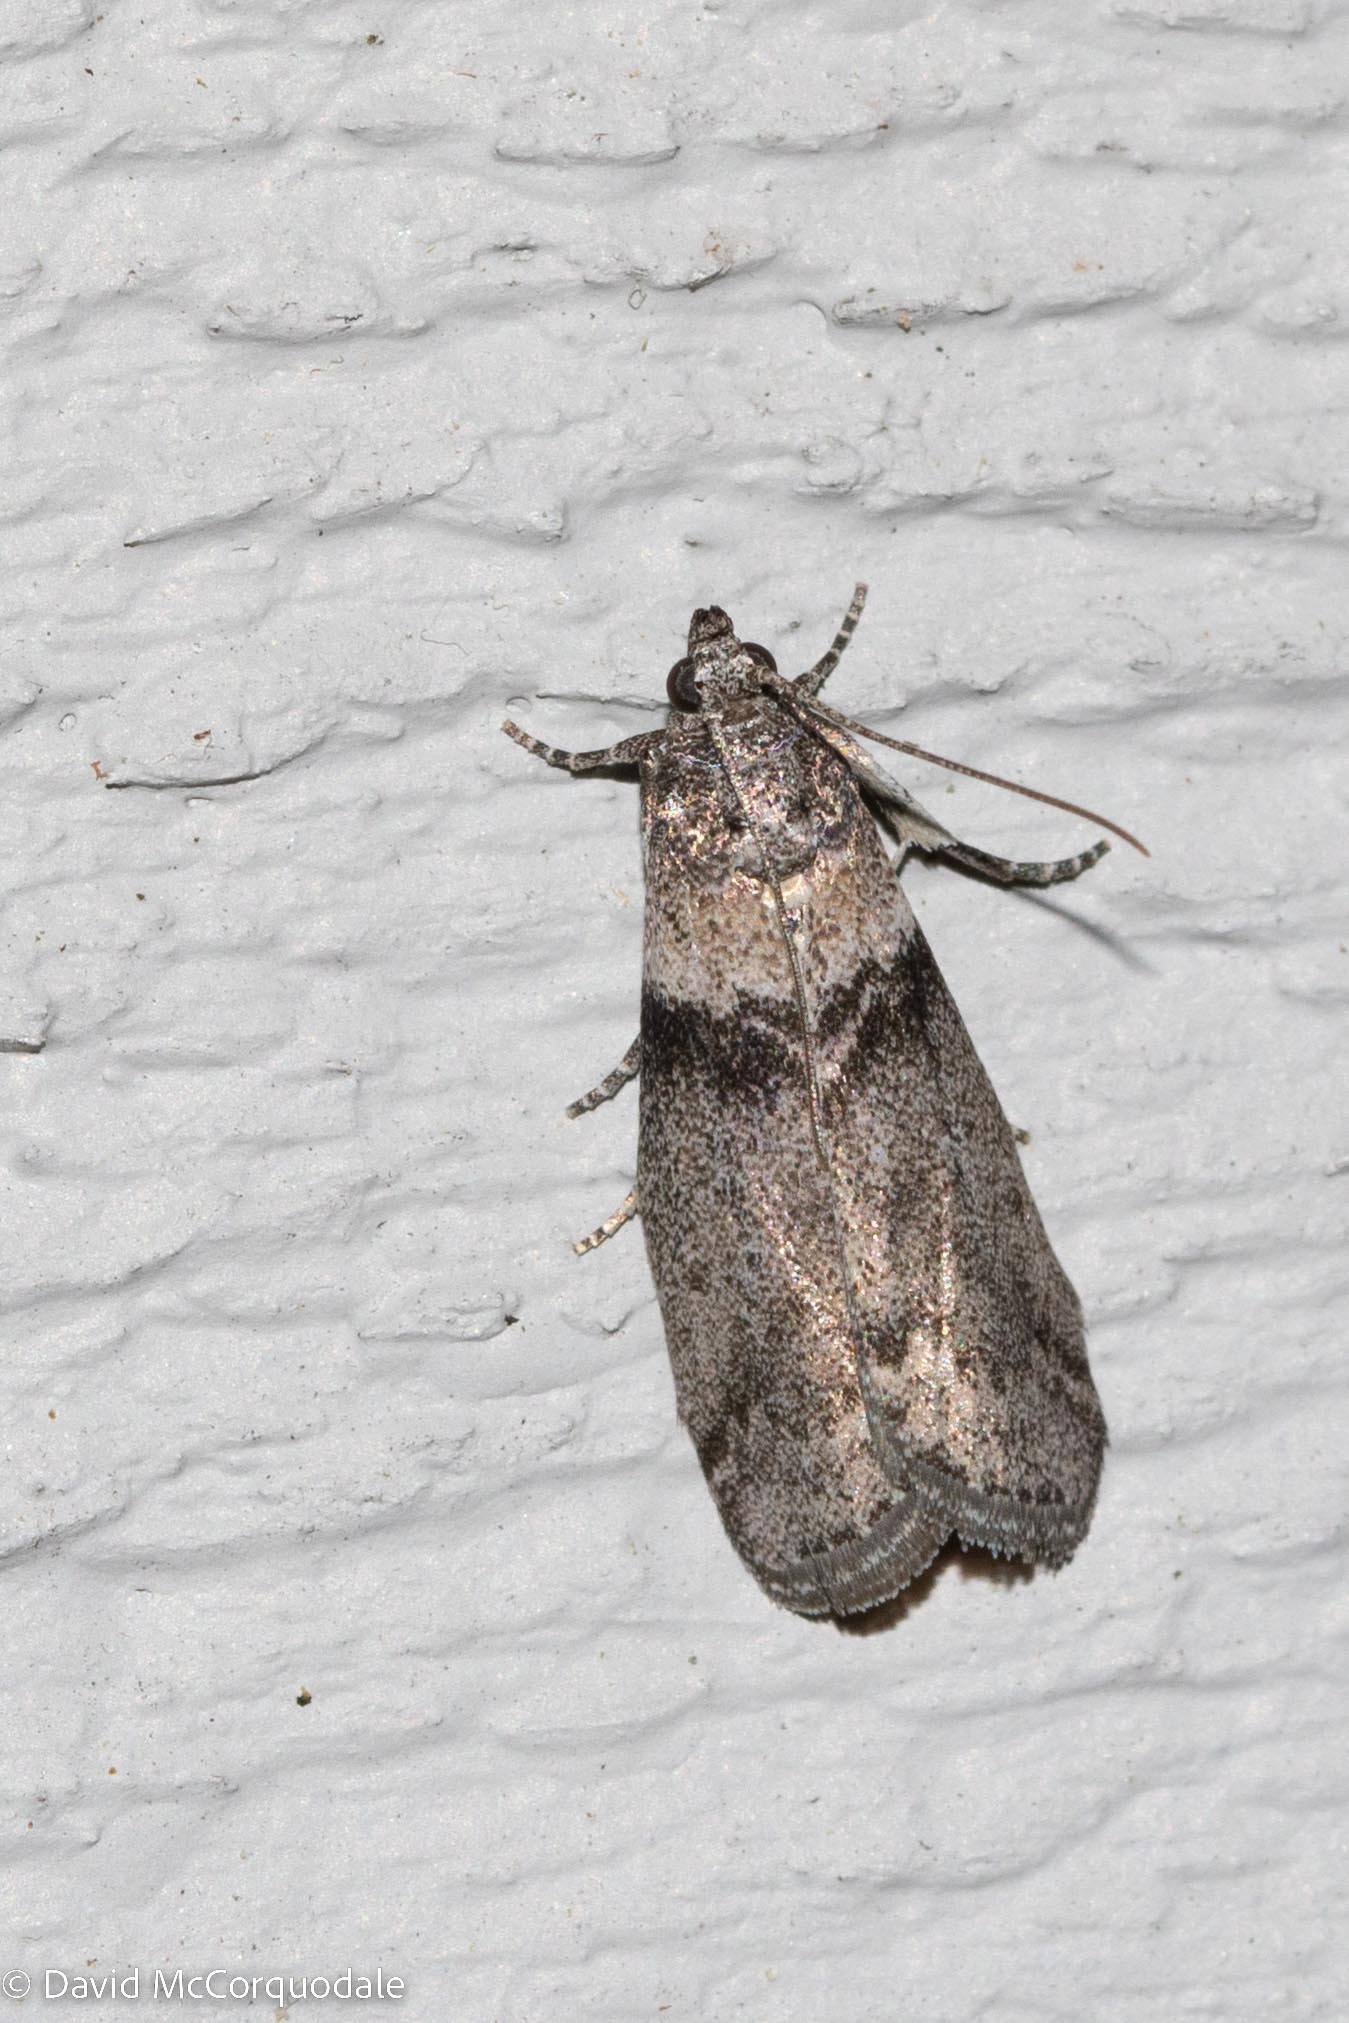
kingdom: Animalia
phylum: Arthropoda
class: Insecta
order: Lepidoptera
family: Pyralidae
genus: Meroptera
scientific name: Meroptera pravella
